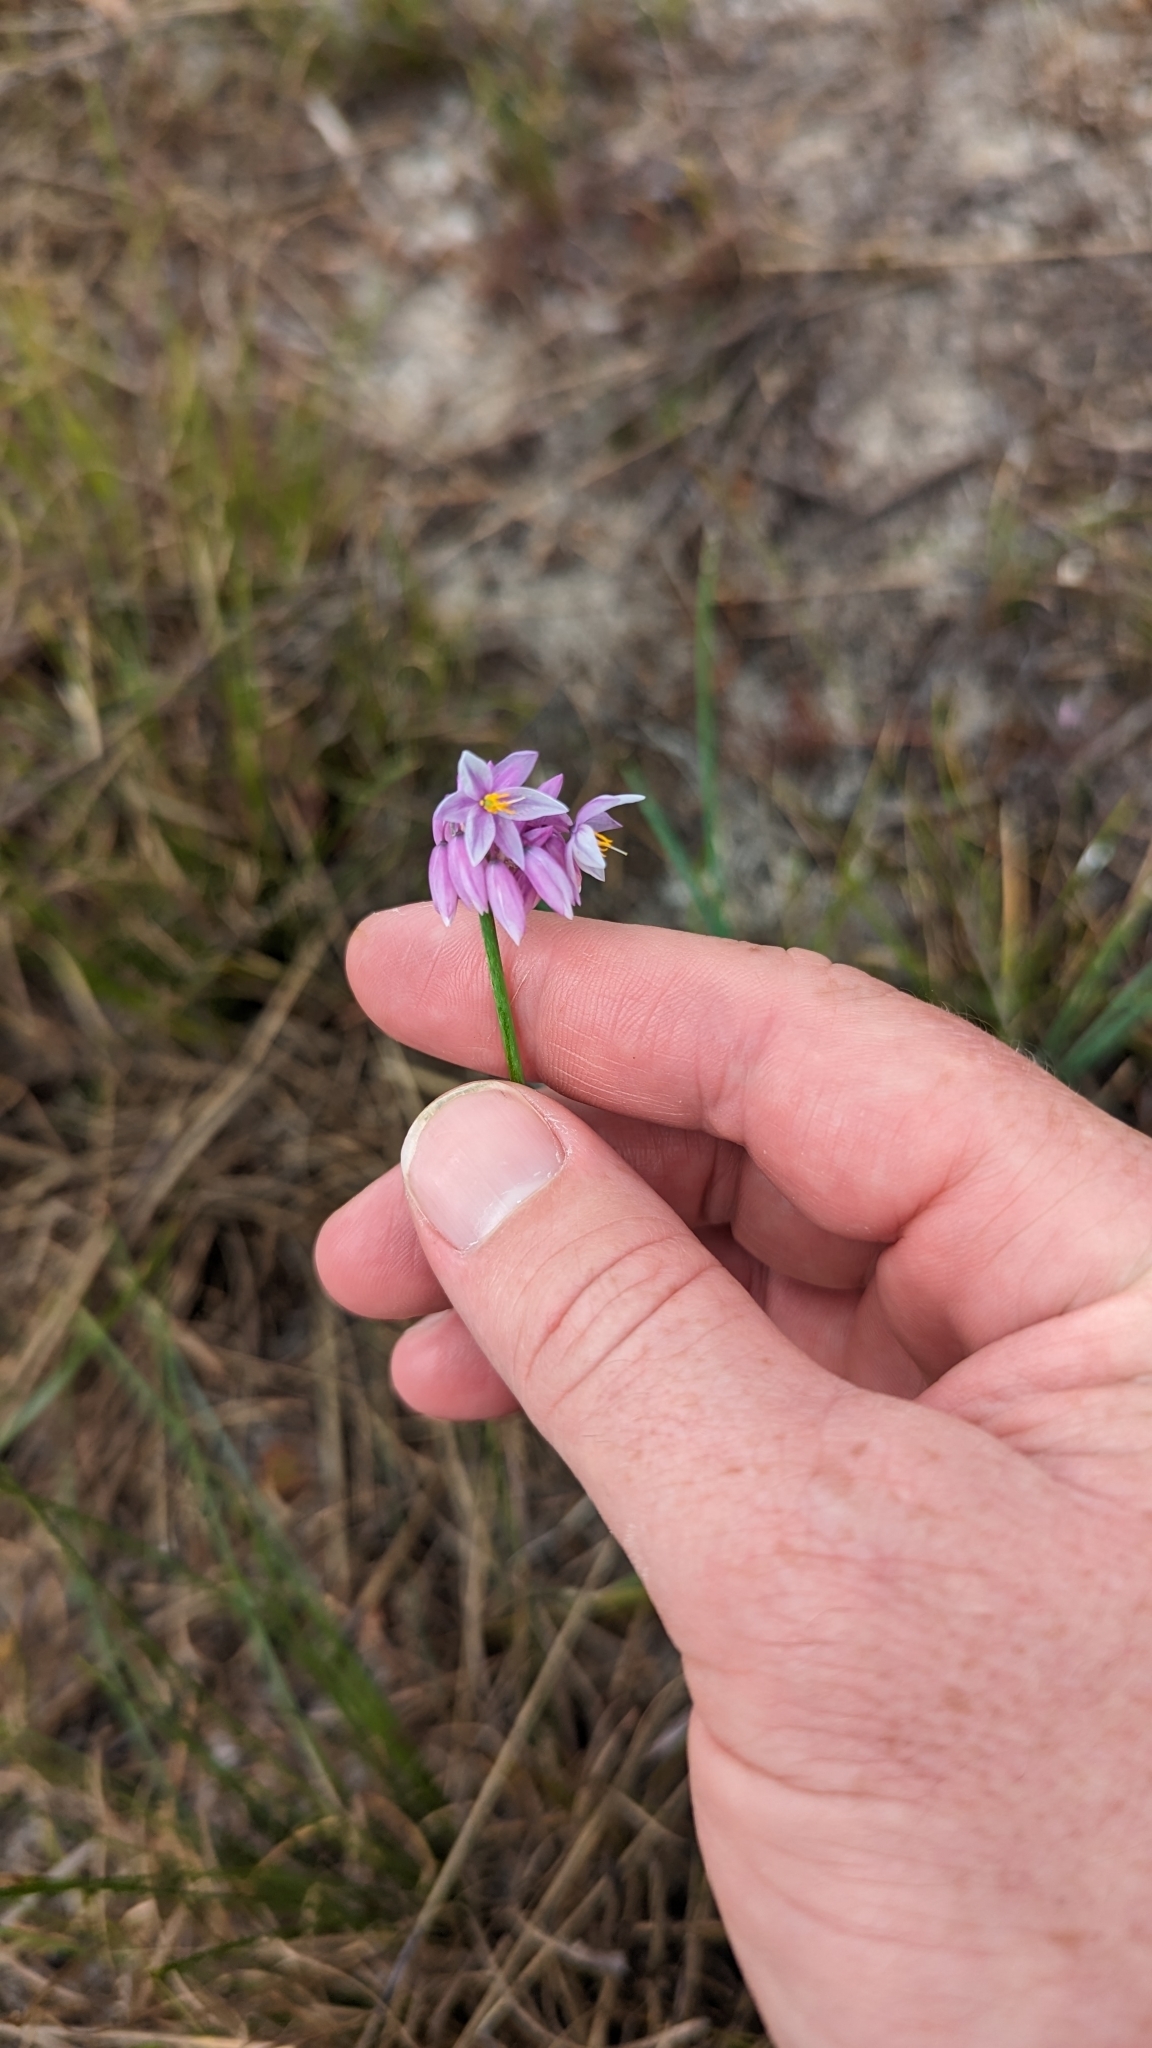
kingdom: Plantae
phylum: Tracheophyta
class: Liliopsida
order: Asparagales
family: Asparagaceae
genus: Sowerbaea
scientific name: Sowerbaea juncea
